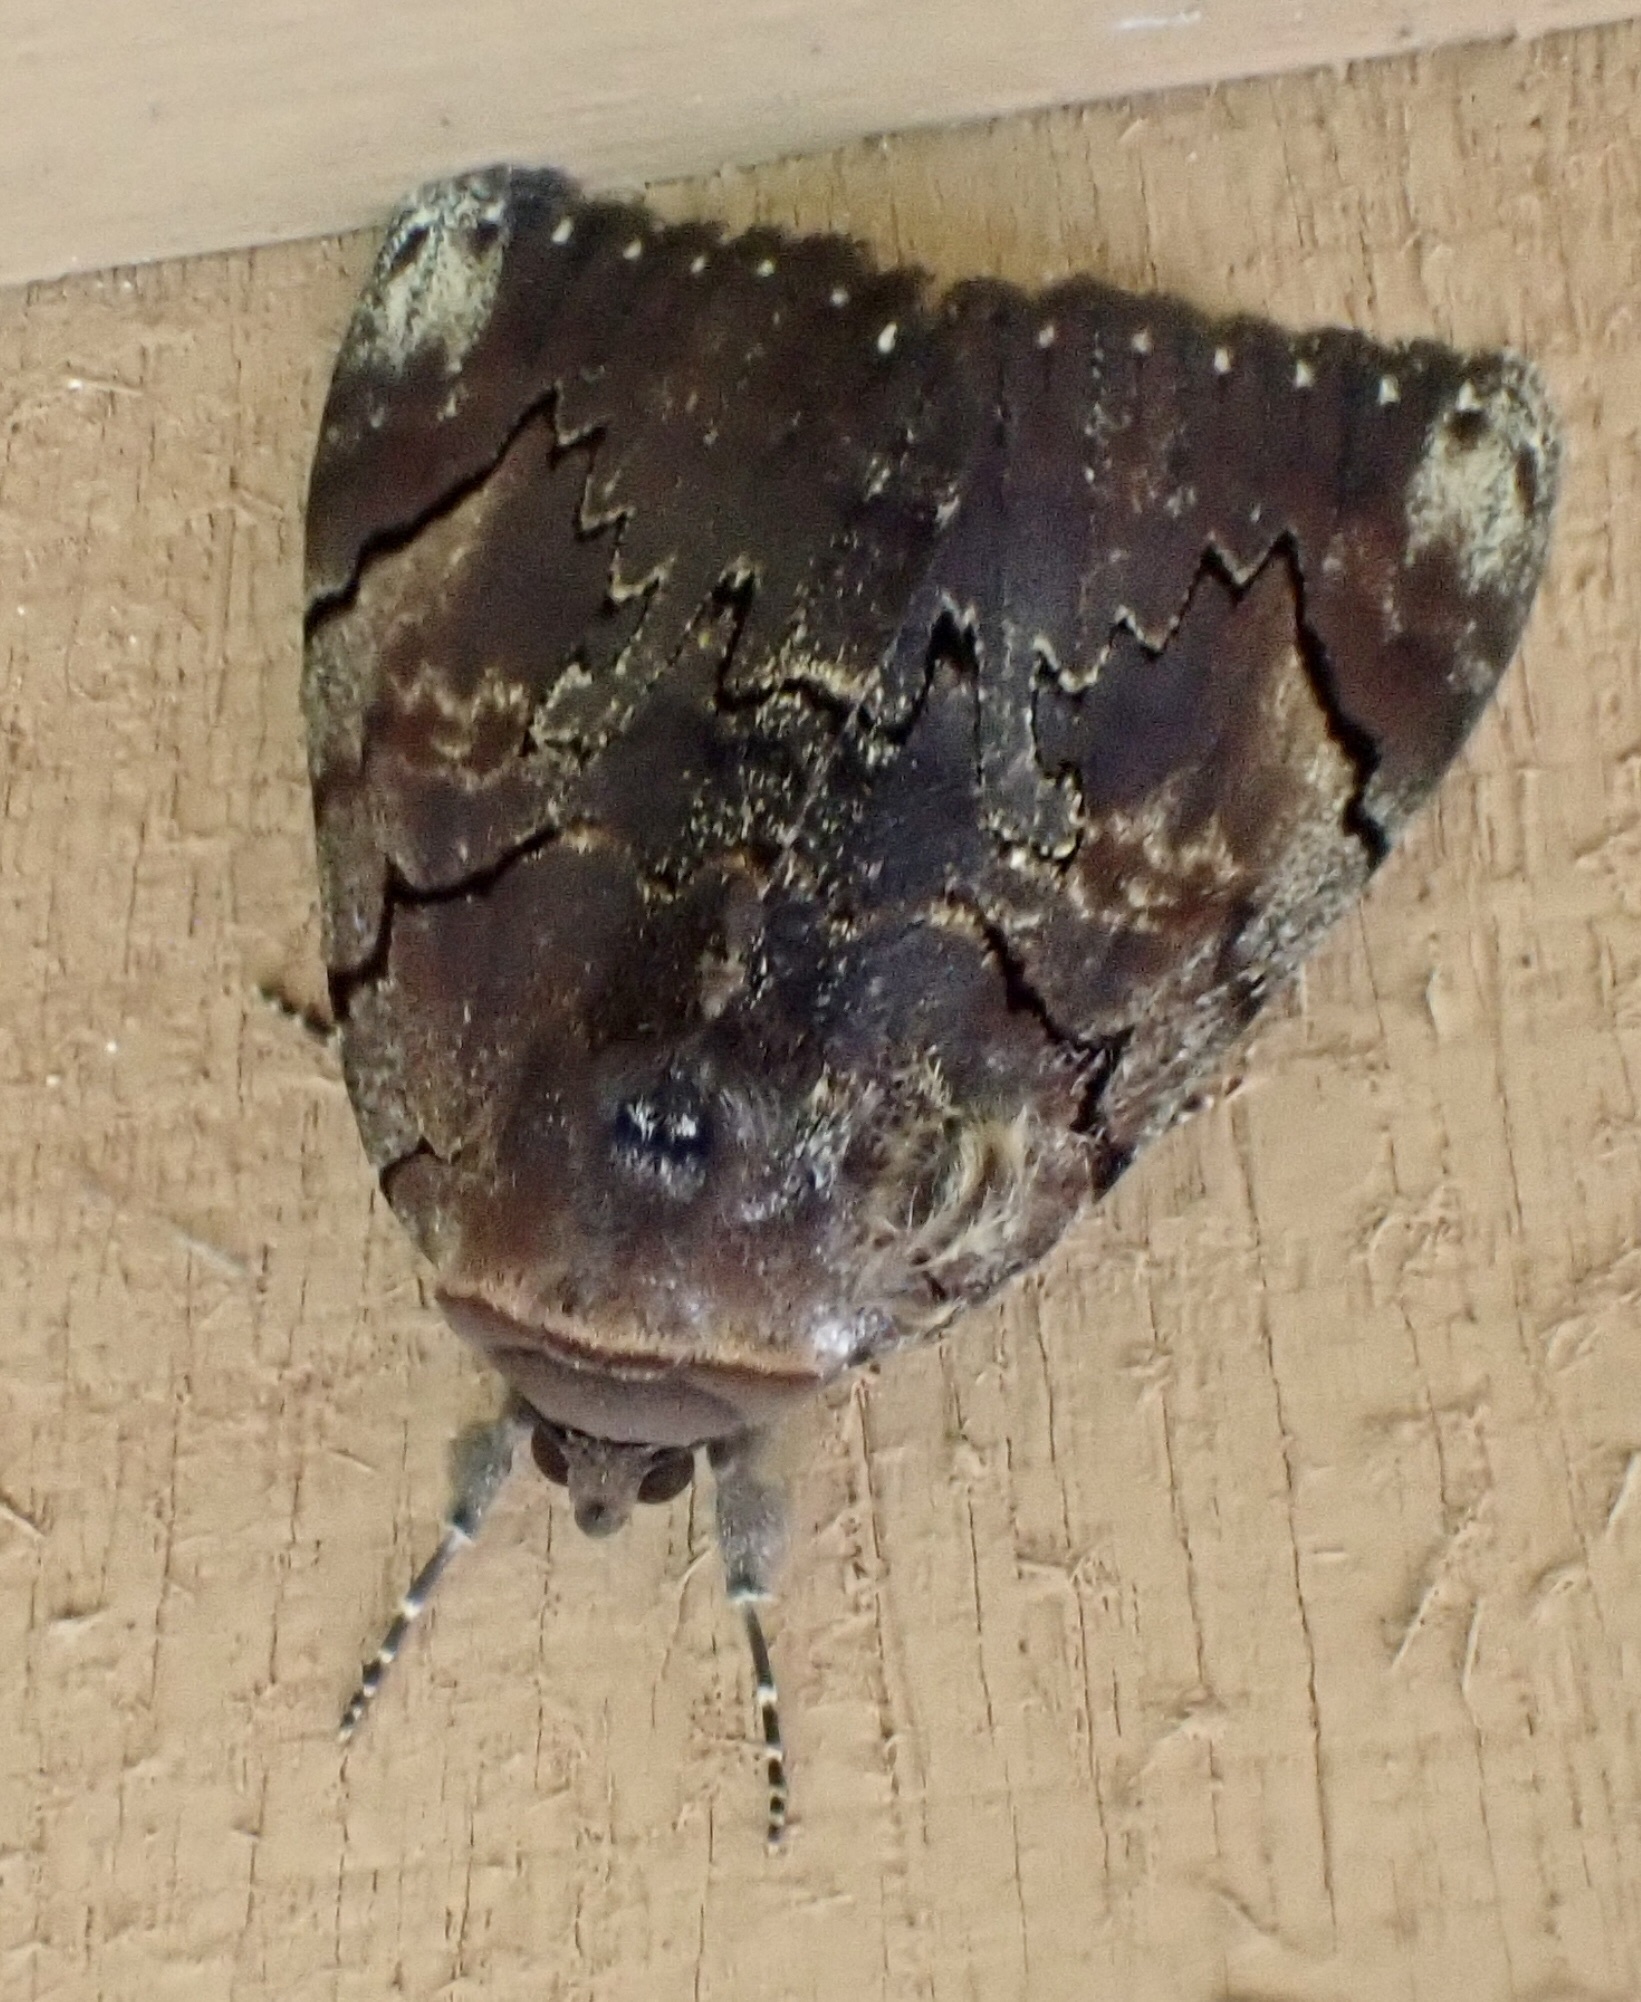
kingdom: Animalia
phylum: Arthropoda
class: Insecta
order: Lepidoptera
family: Erebidae
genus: Catocala
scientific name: Catocala carissima
